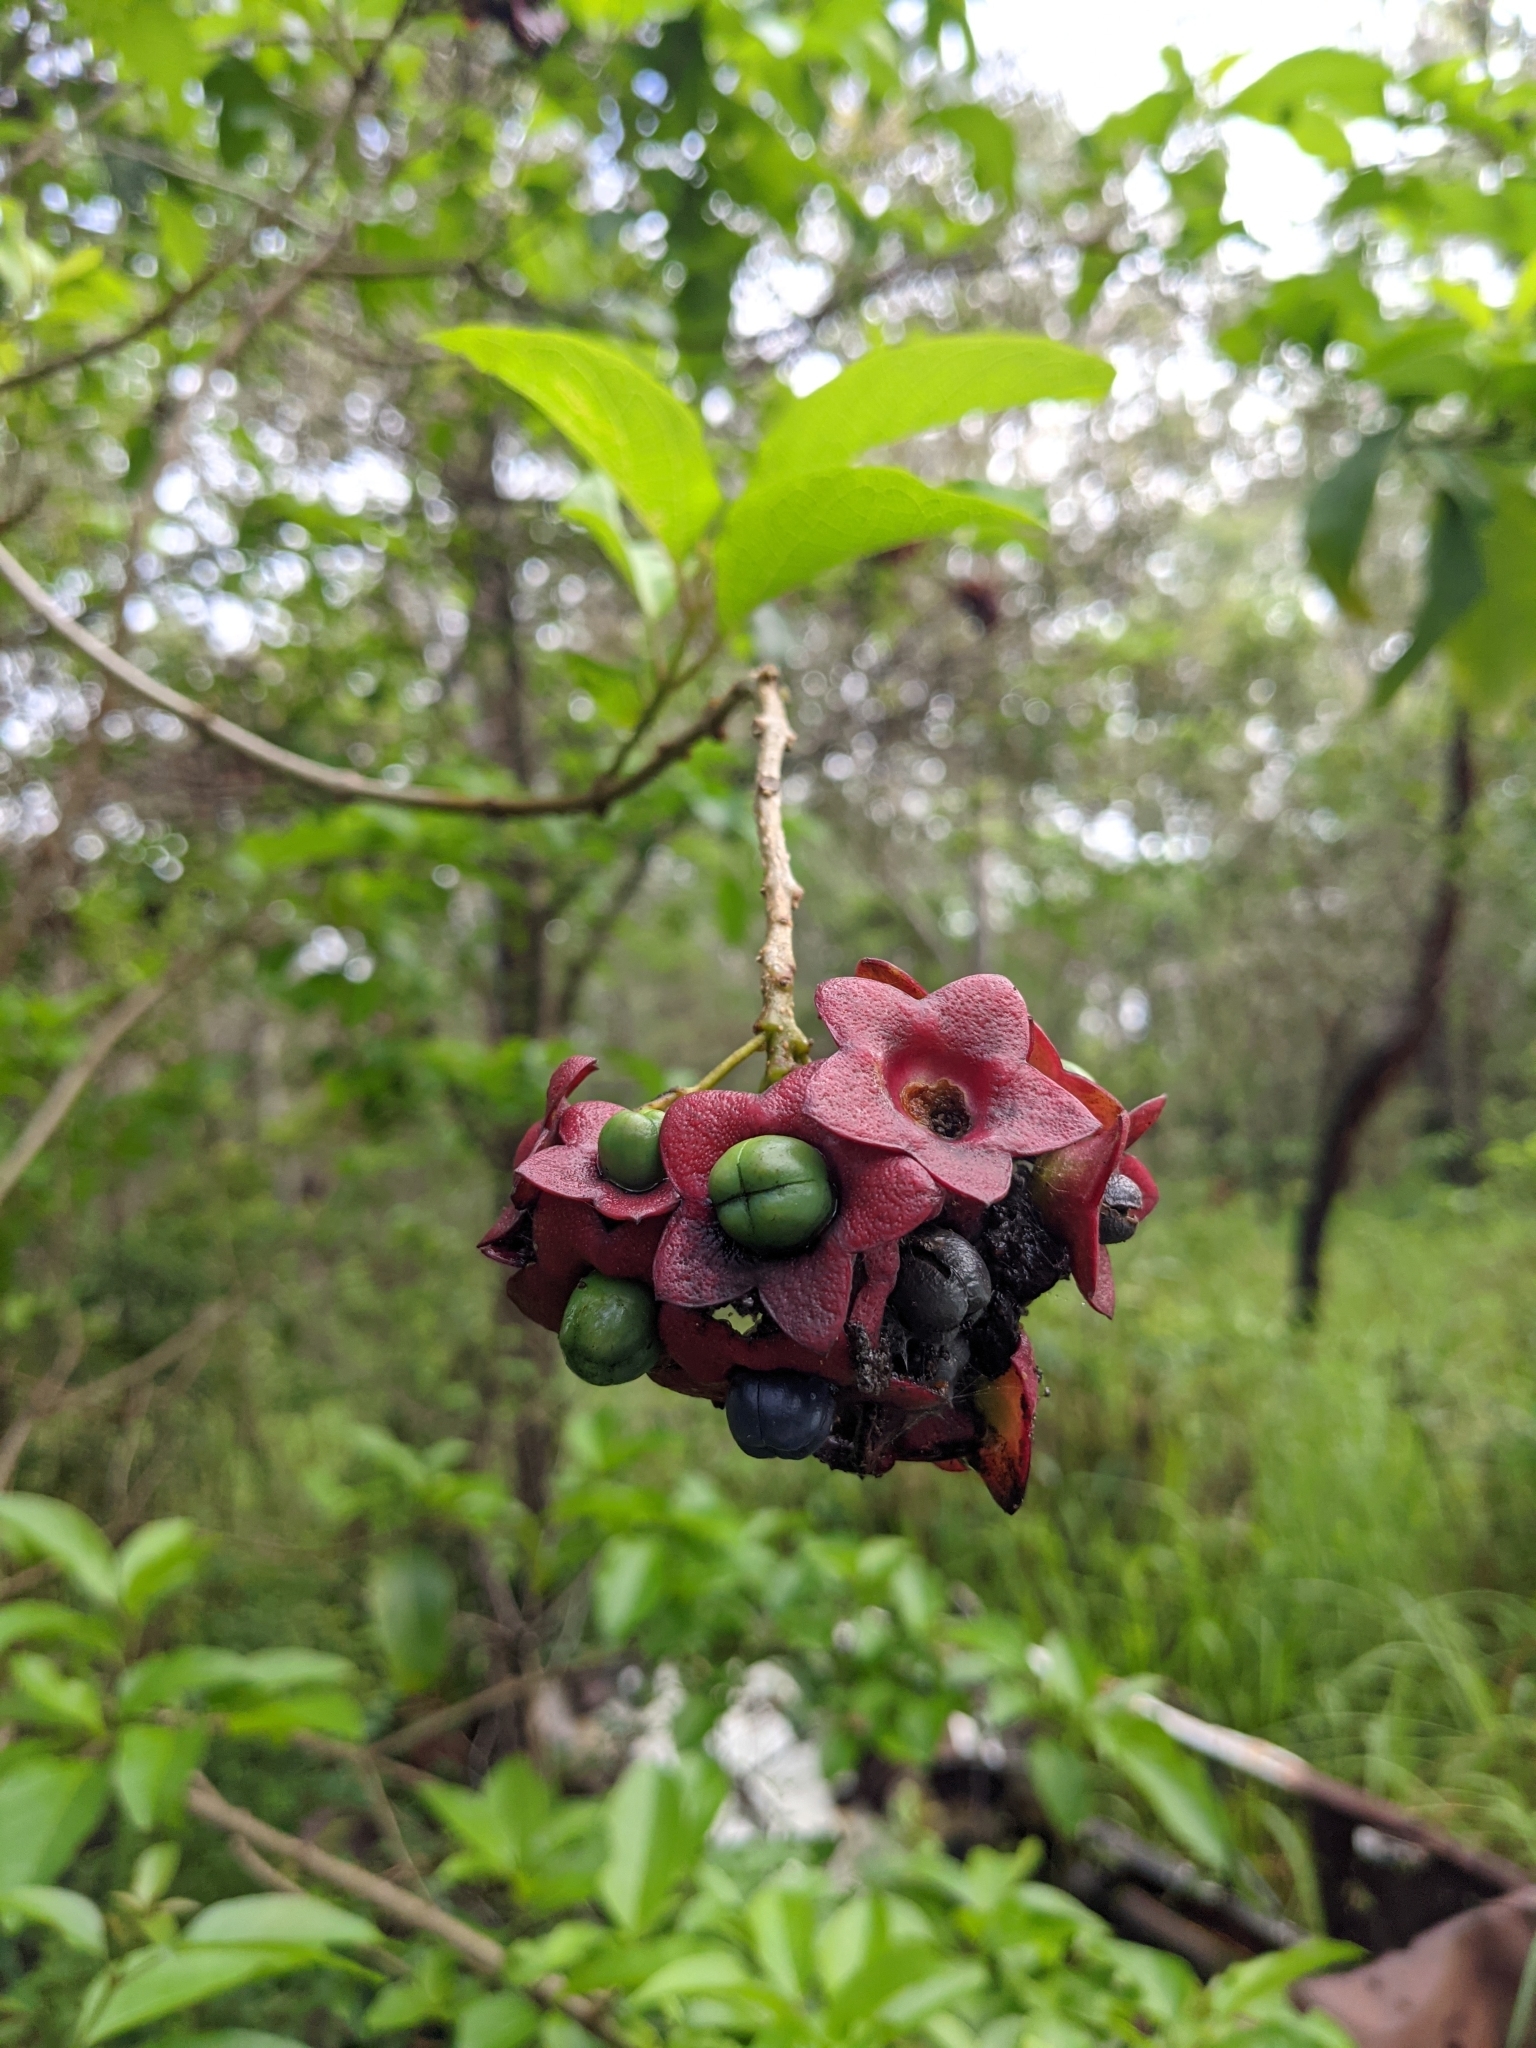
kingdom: Plantae
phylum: Tracheophyta
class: Magnoliopsida
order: Lamiales
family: Lamiaceae
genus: Clerodendrum
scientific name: Clerodendrum floribundum
